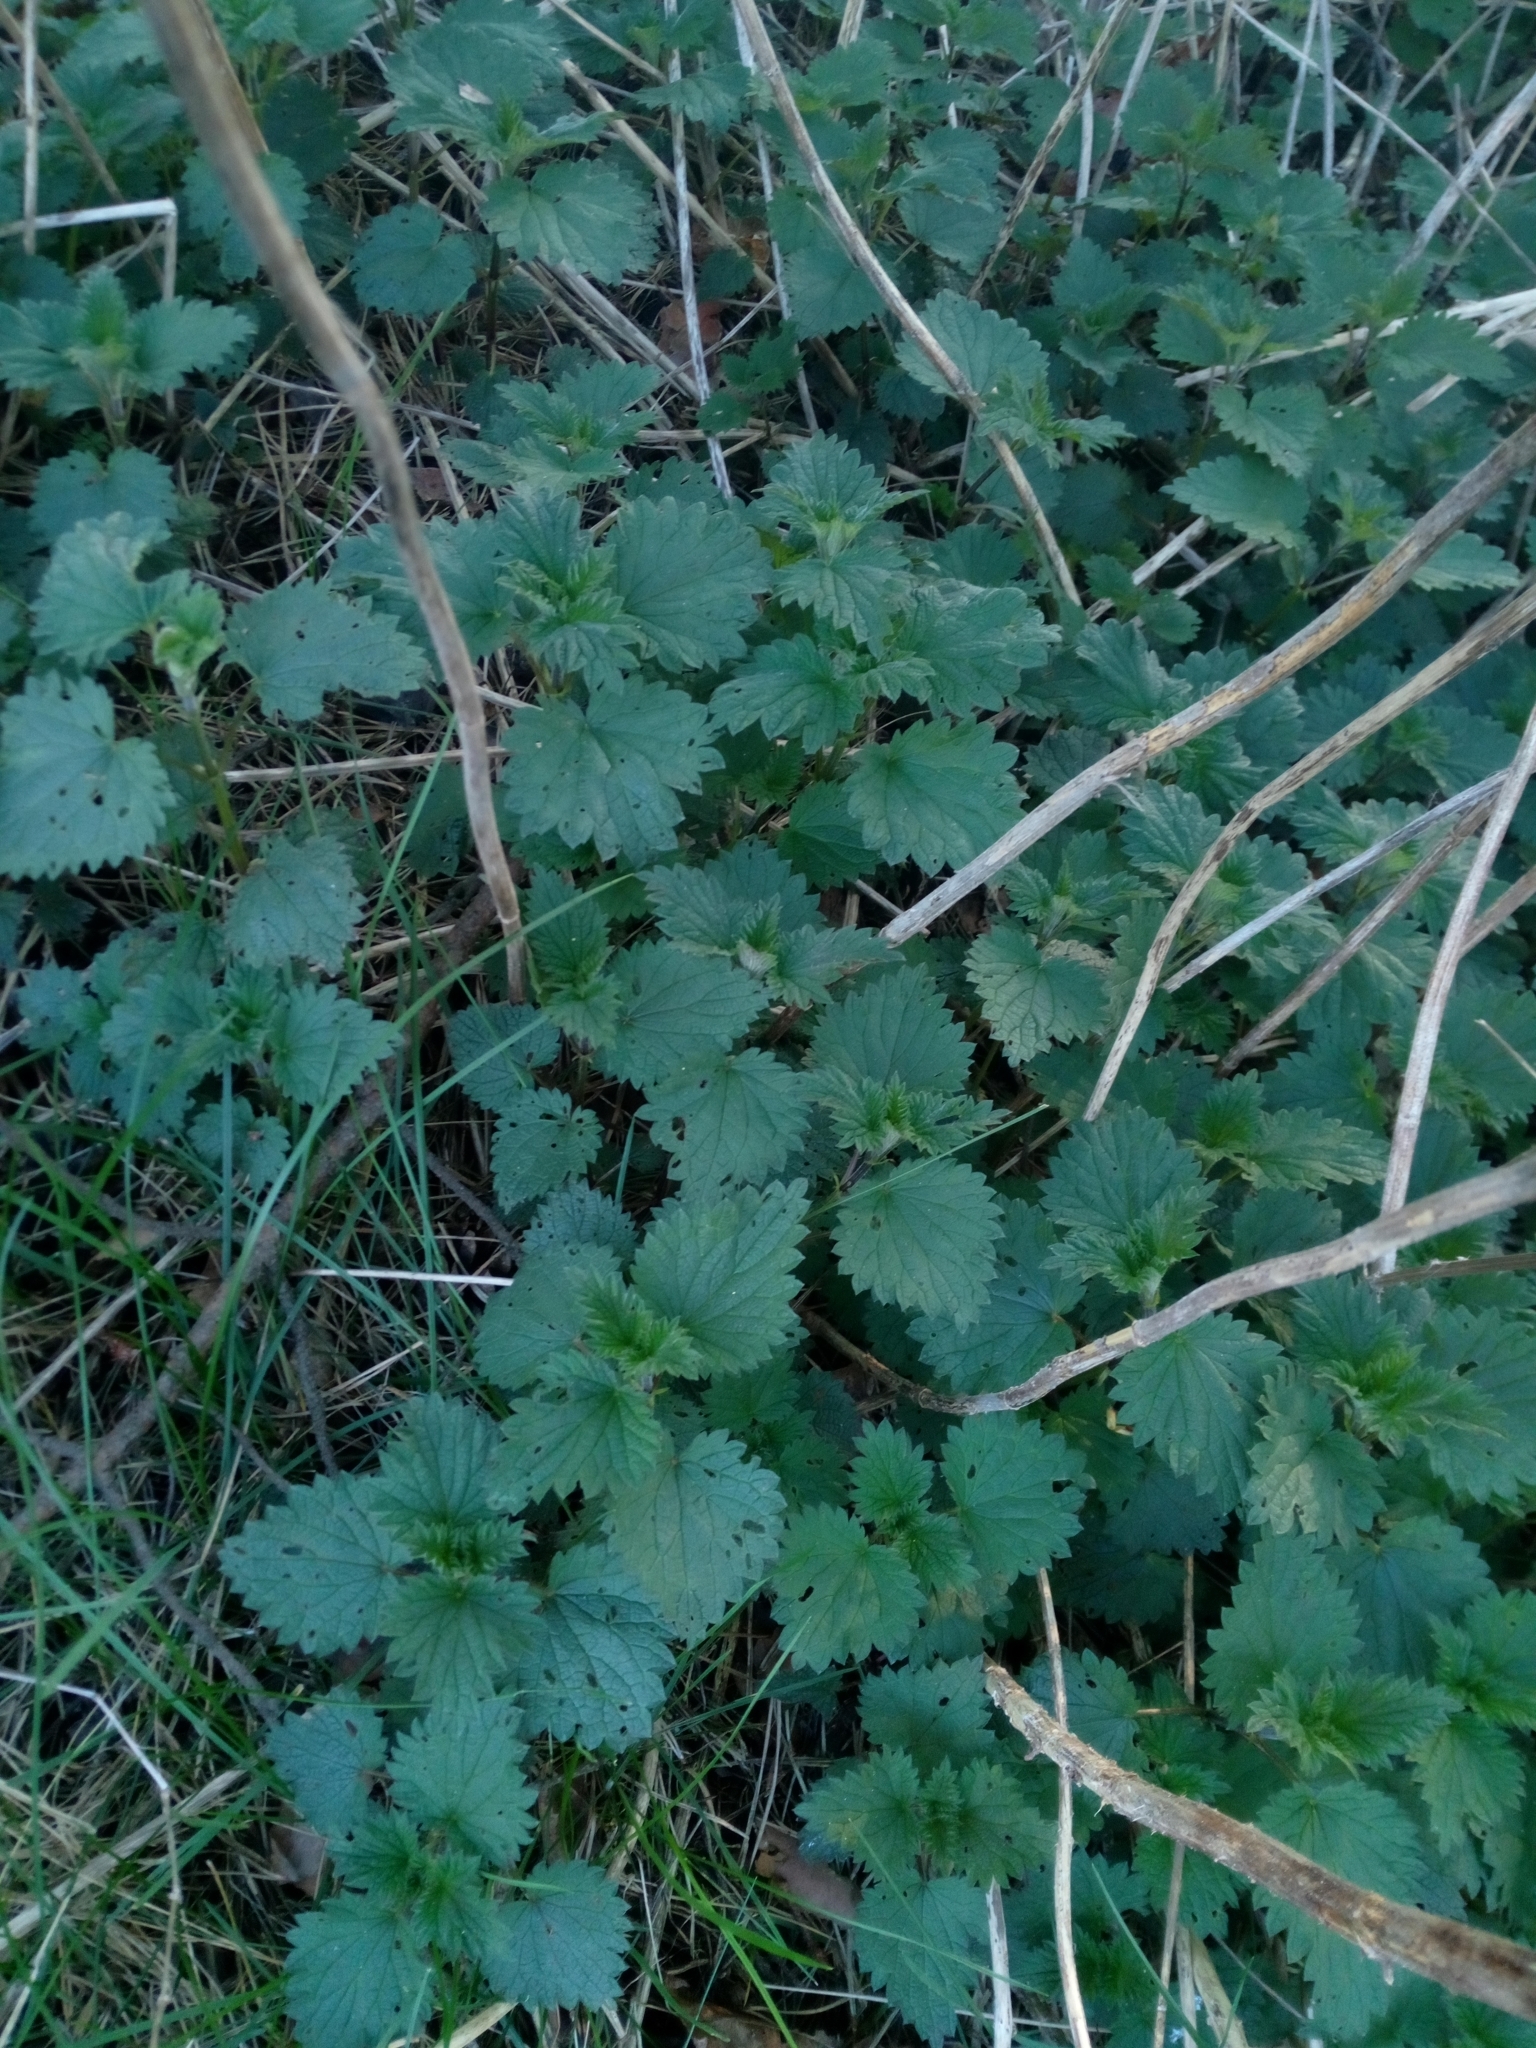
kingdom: Plantae
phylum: Tracheophyta
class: Magnoliopsida
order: Rosales
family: Urticaceae
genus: Urtica
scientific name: Urtica dioica
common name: Common nettle
